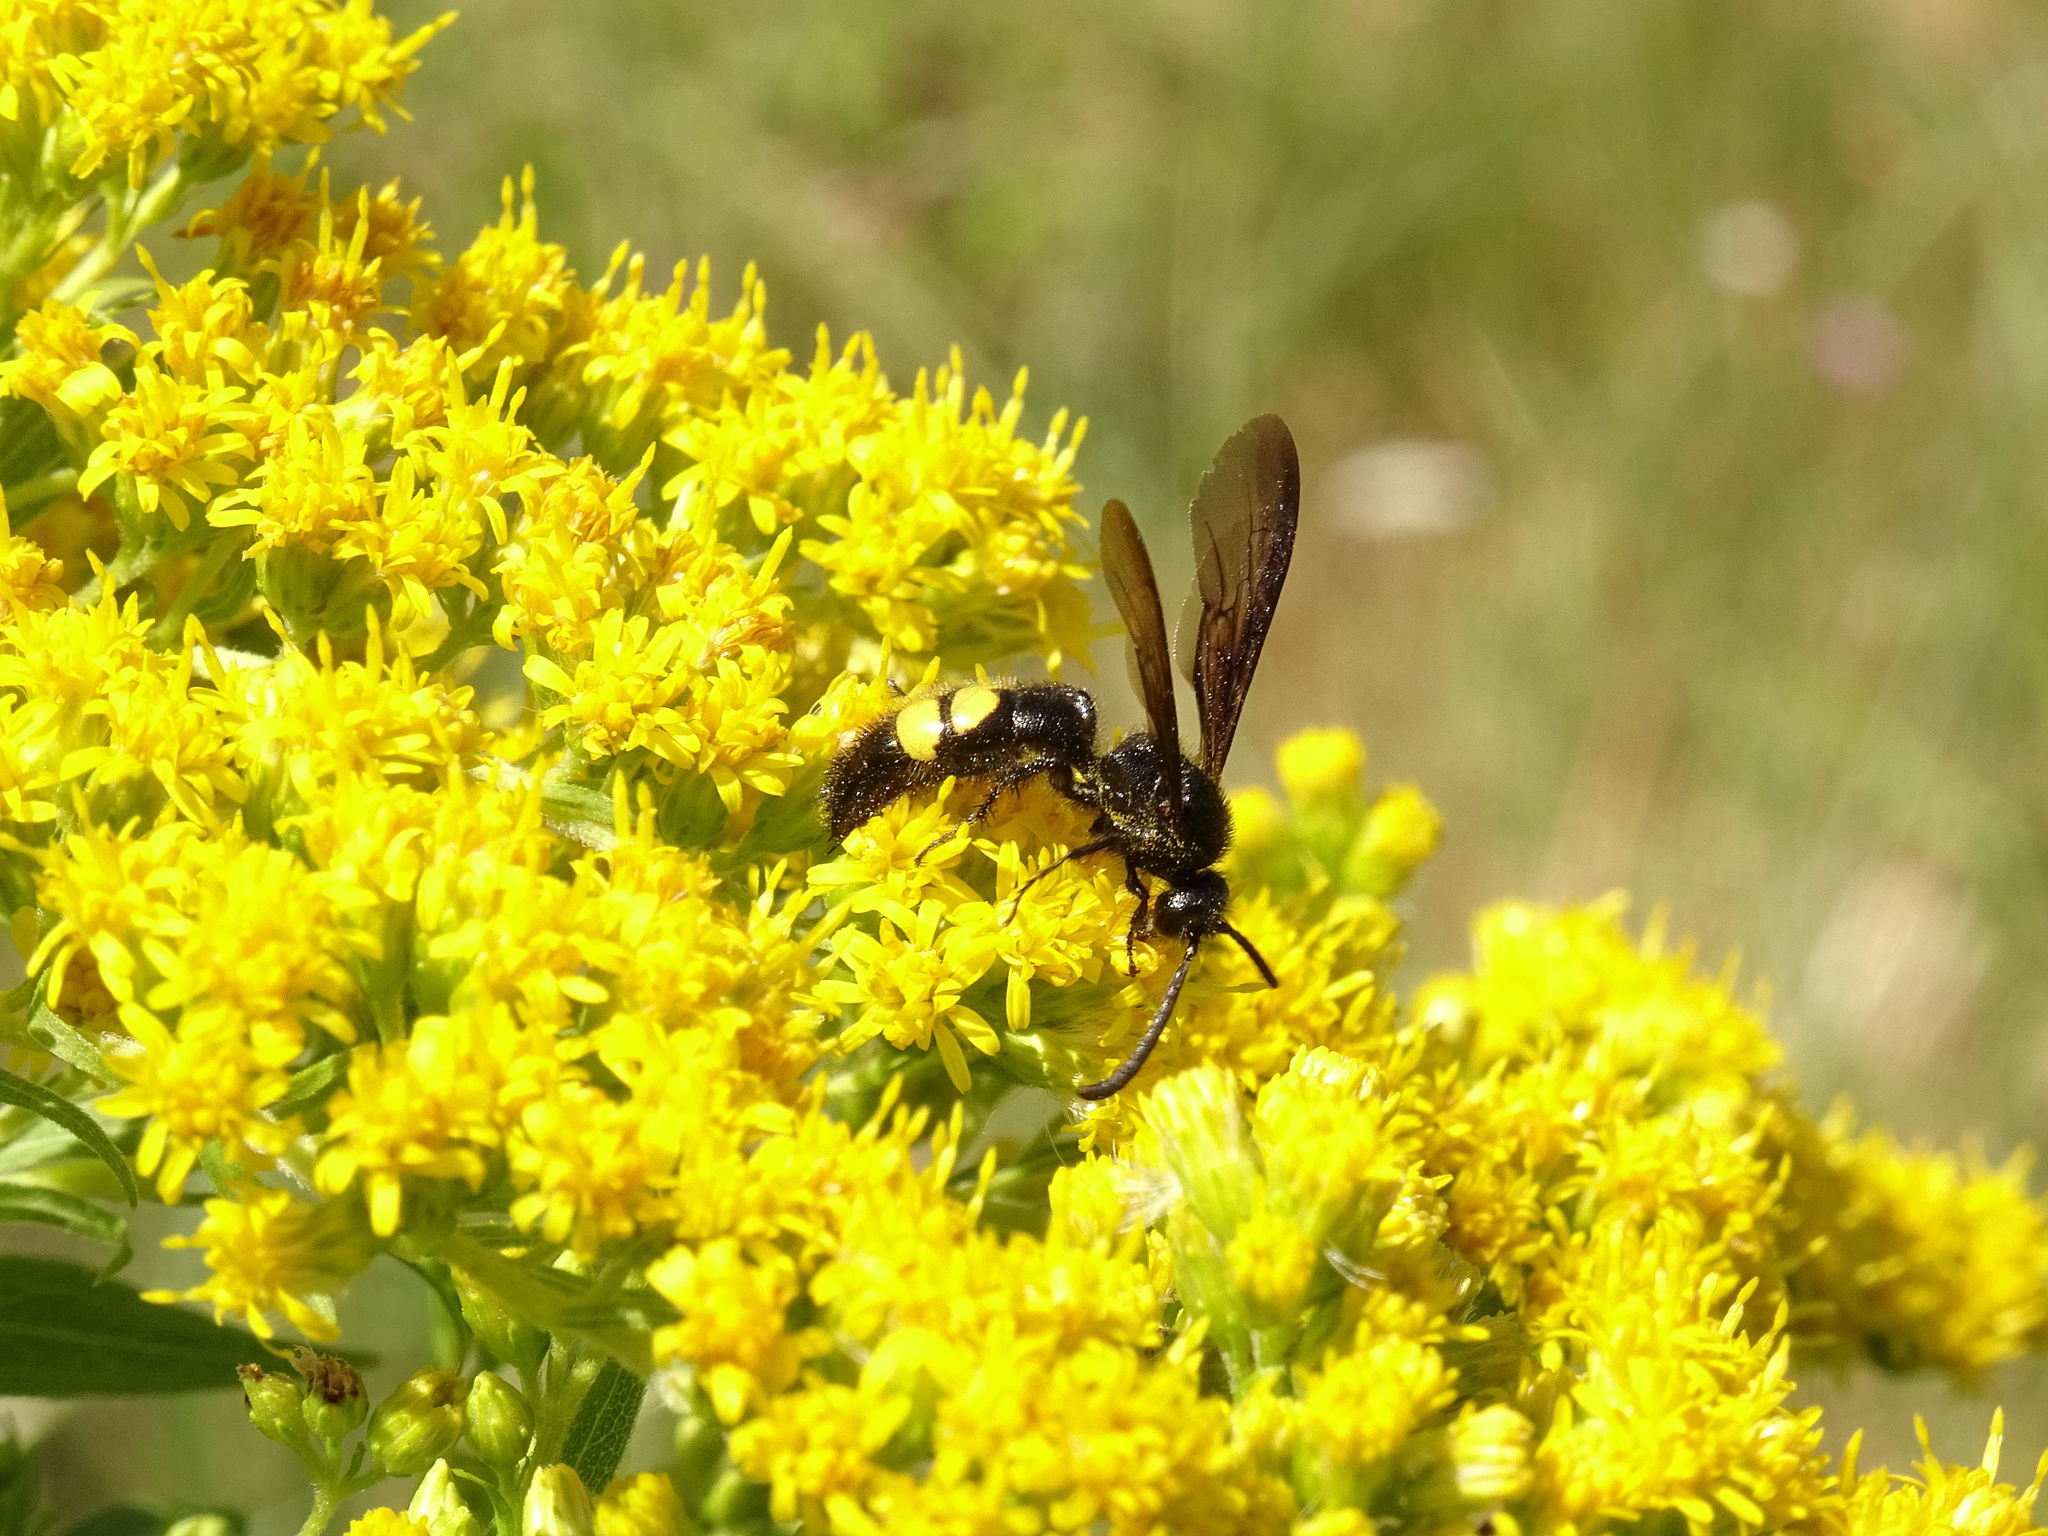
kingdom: Animalia
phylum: Arthropoda
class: Insecta
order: Hymenoptera
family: Scoliidae
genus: Scolia
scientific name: Scolia hirta
